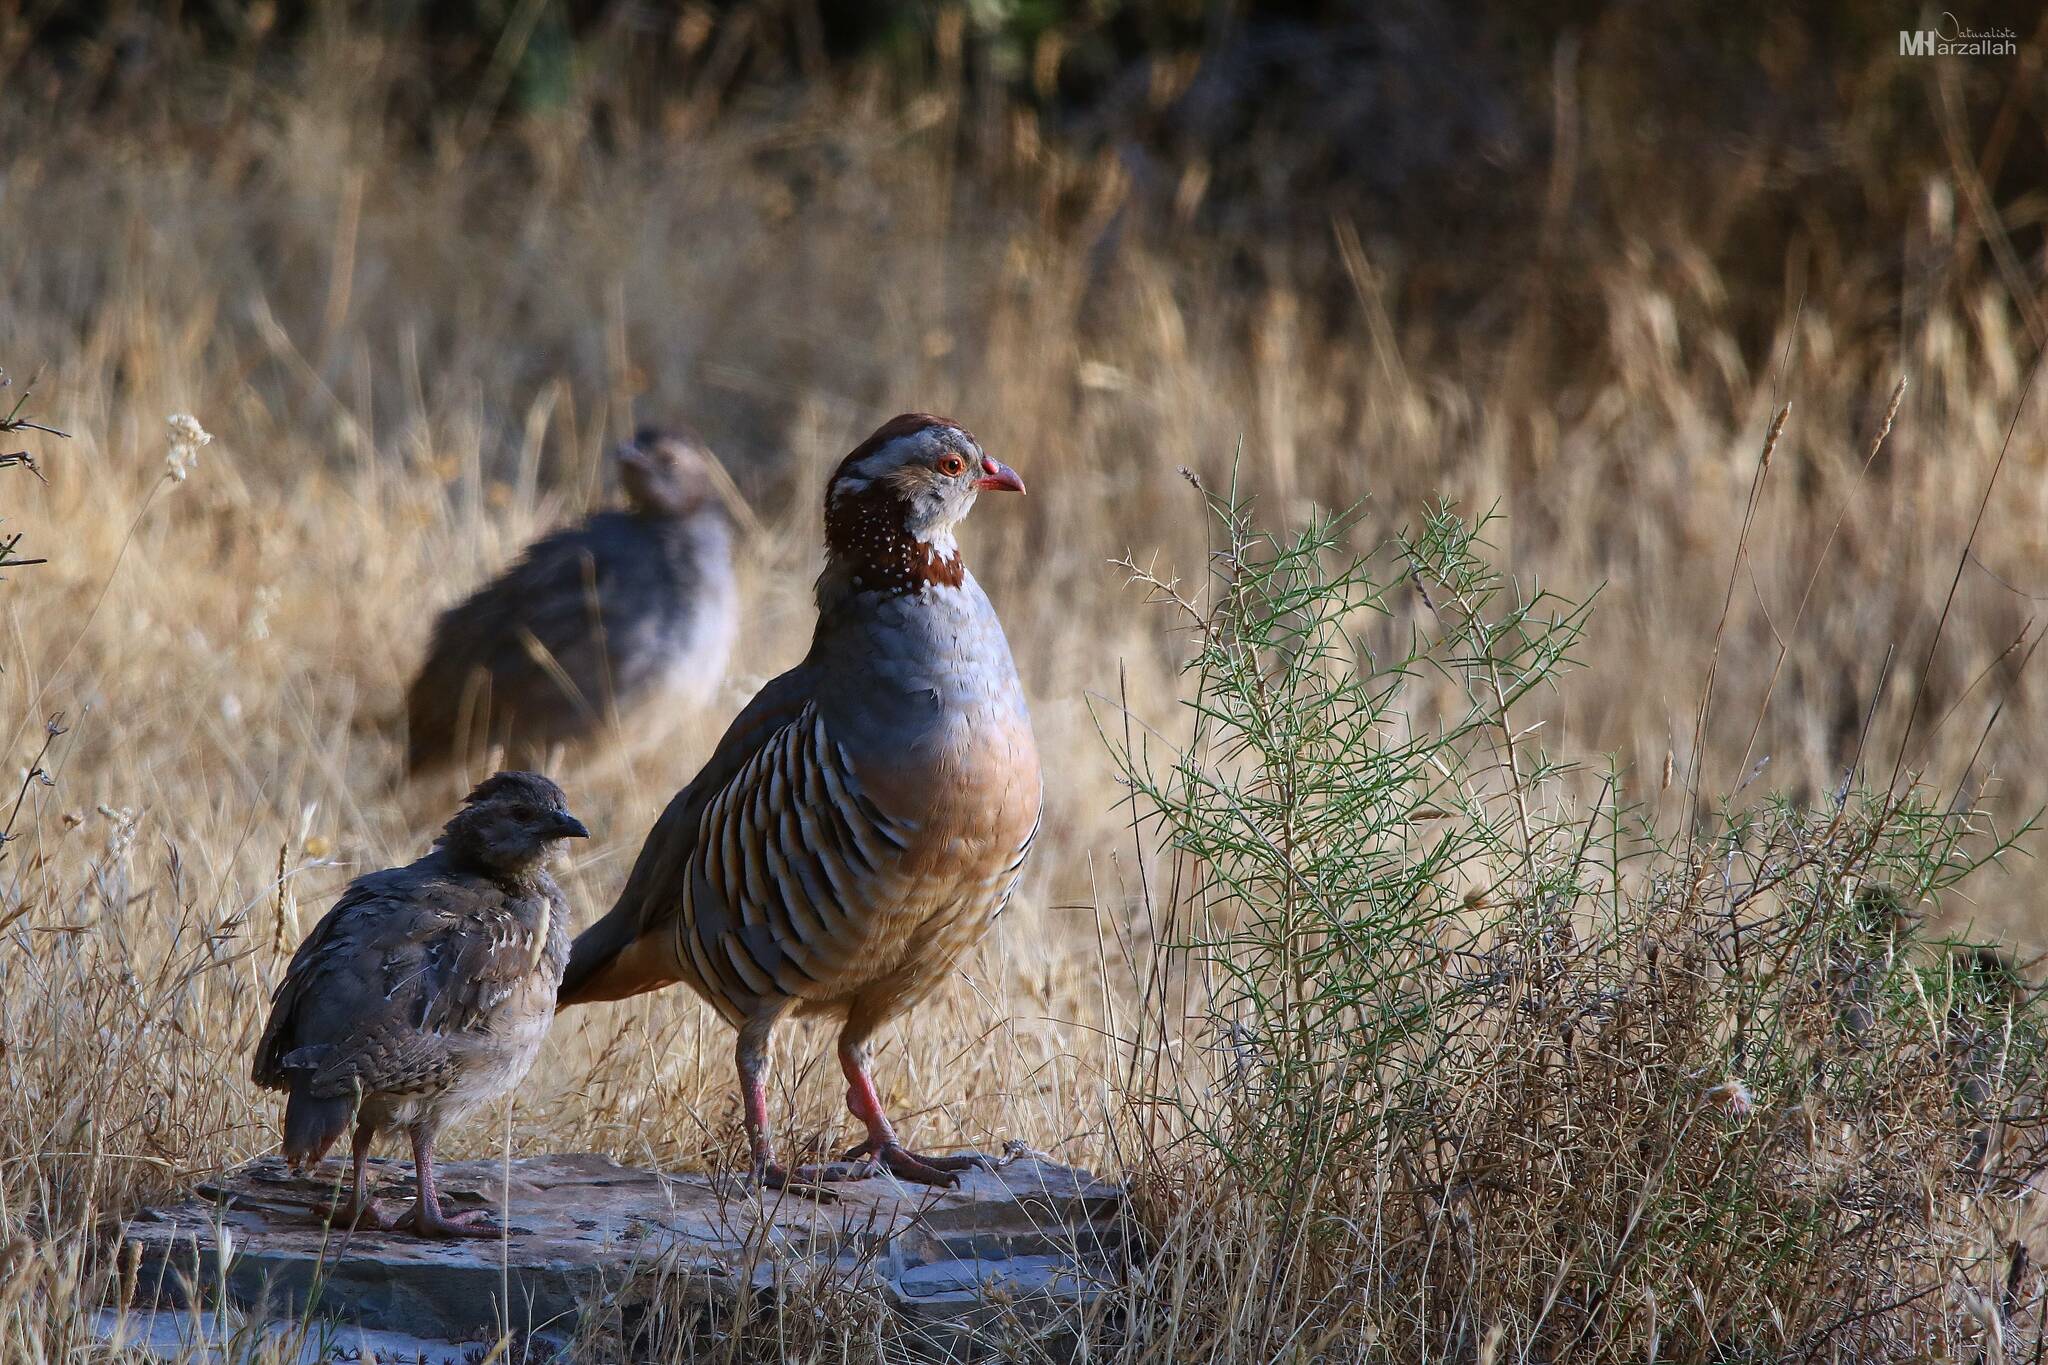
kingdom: Animalia
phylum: Chordata
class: Aves
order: Galliformes
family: Phasianidae
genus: Alectoris
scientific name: Alectoris barbara
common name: Barbary partridge
